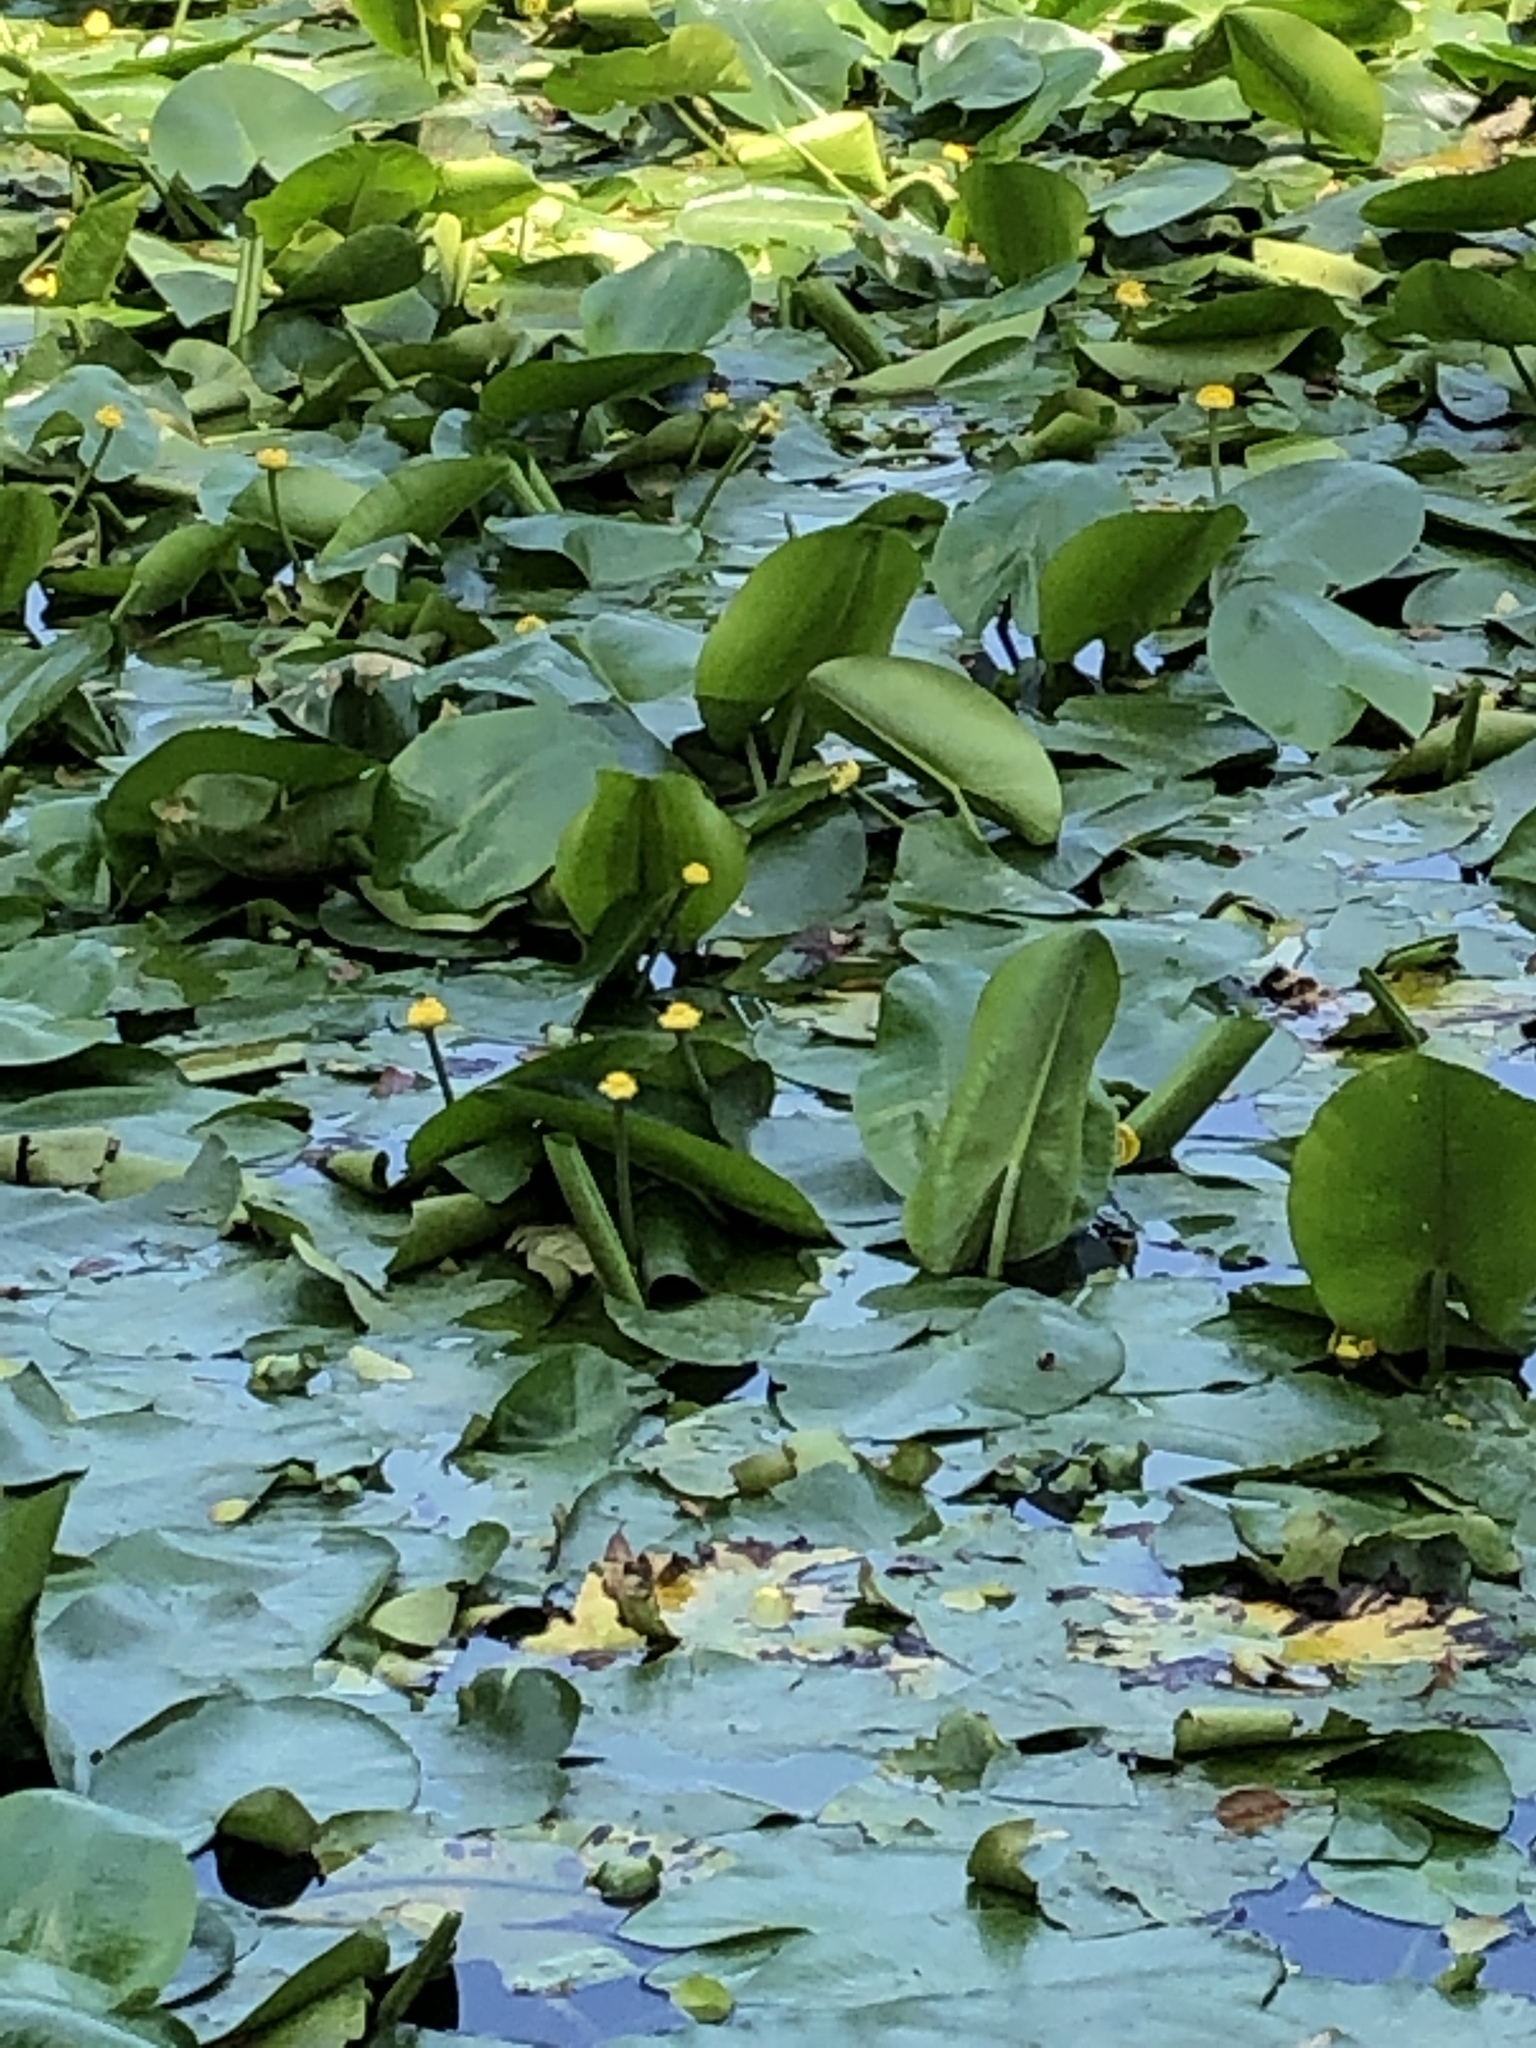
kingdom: Plantae
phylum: Tracheophyta
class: Magnoliopsida
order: Nymphaeales
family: Nymphaeaceae
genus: Nuphar
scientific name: Nuphar lutea
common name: Yellow water-lily
